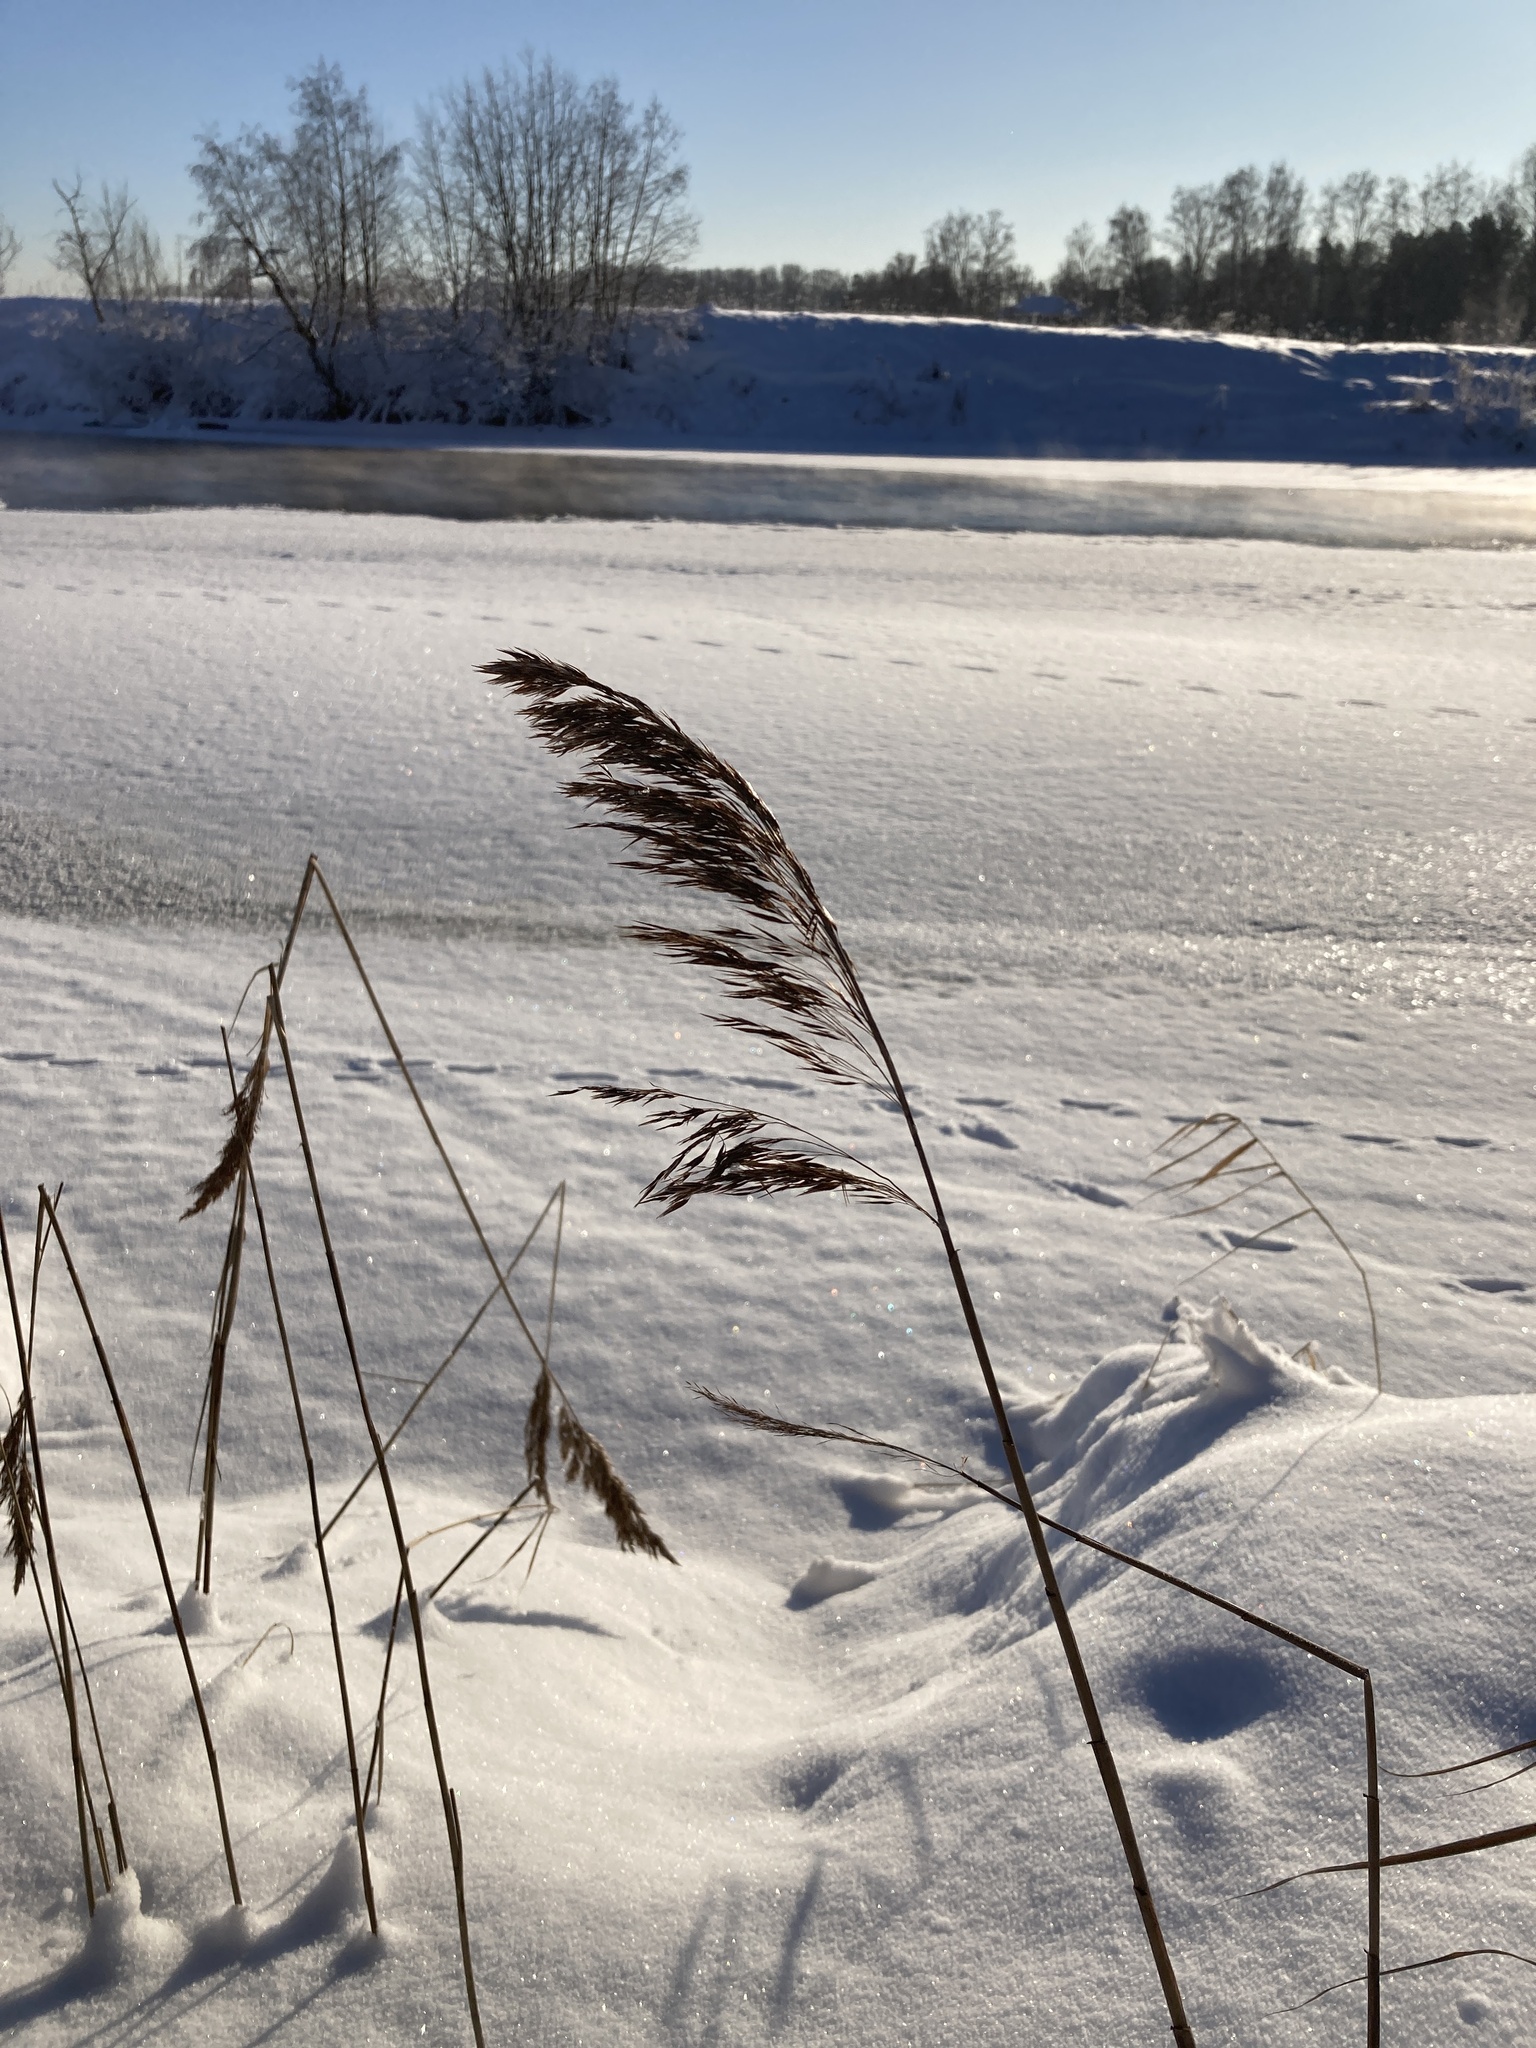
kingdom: Plantae
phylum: Tracheophyta
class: Liliopsida
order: Poales
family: Poaceae
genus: Phragmites
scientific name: Phragmites australis
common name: Common reed
